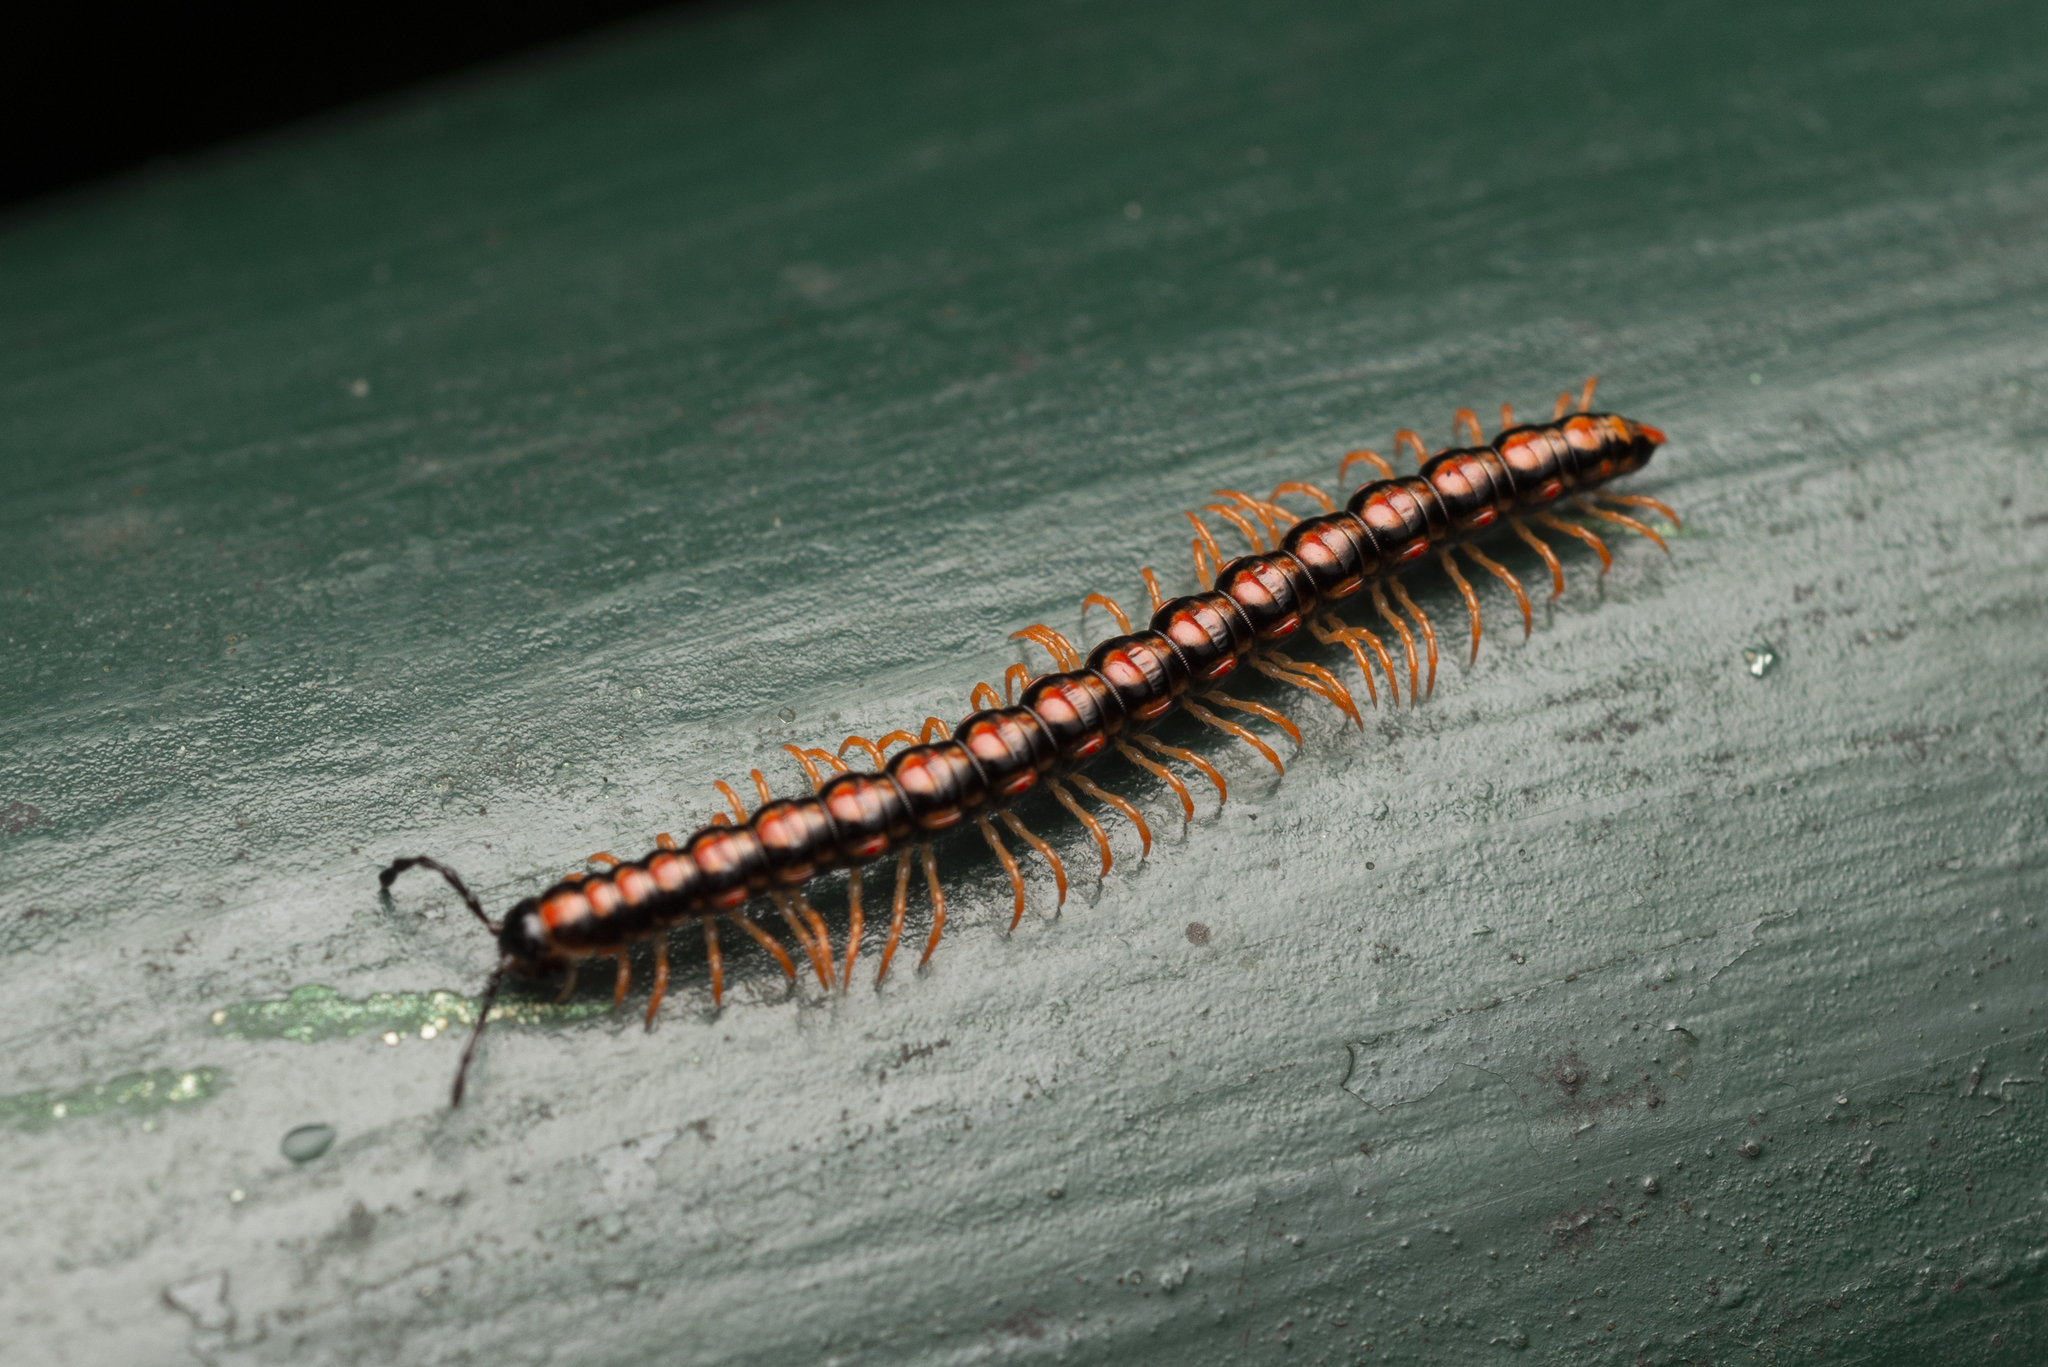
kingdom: Animalia
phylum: Arthropoda
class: Diplopoda
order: Polydesmida
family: Paradoxosomatidae
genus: Helicorthomorpha
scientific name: Helicorthomorpha holstii
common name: Millipede
